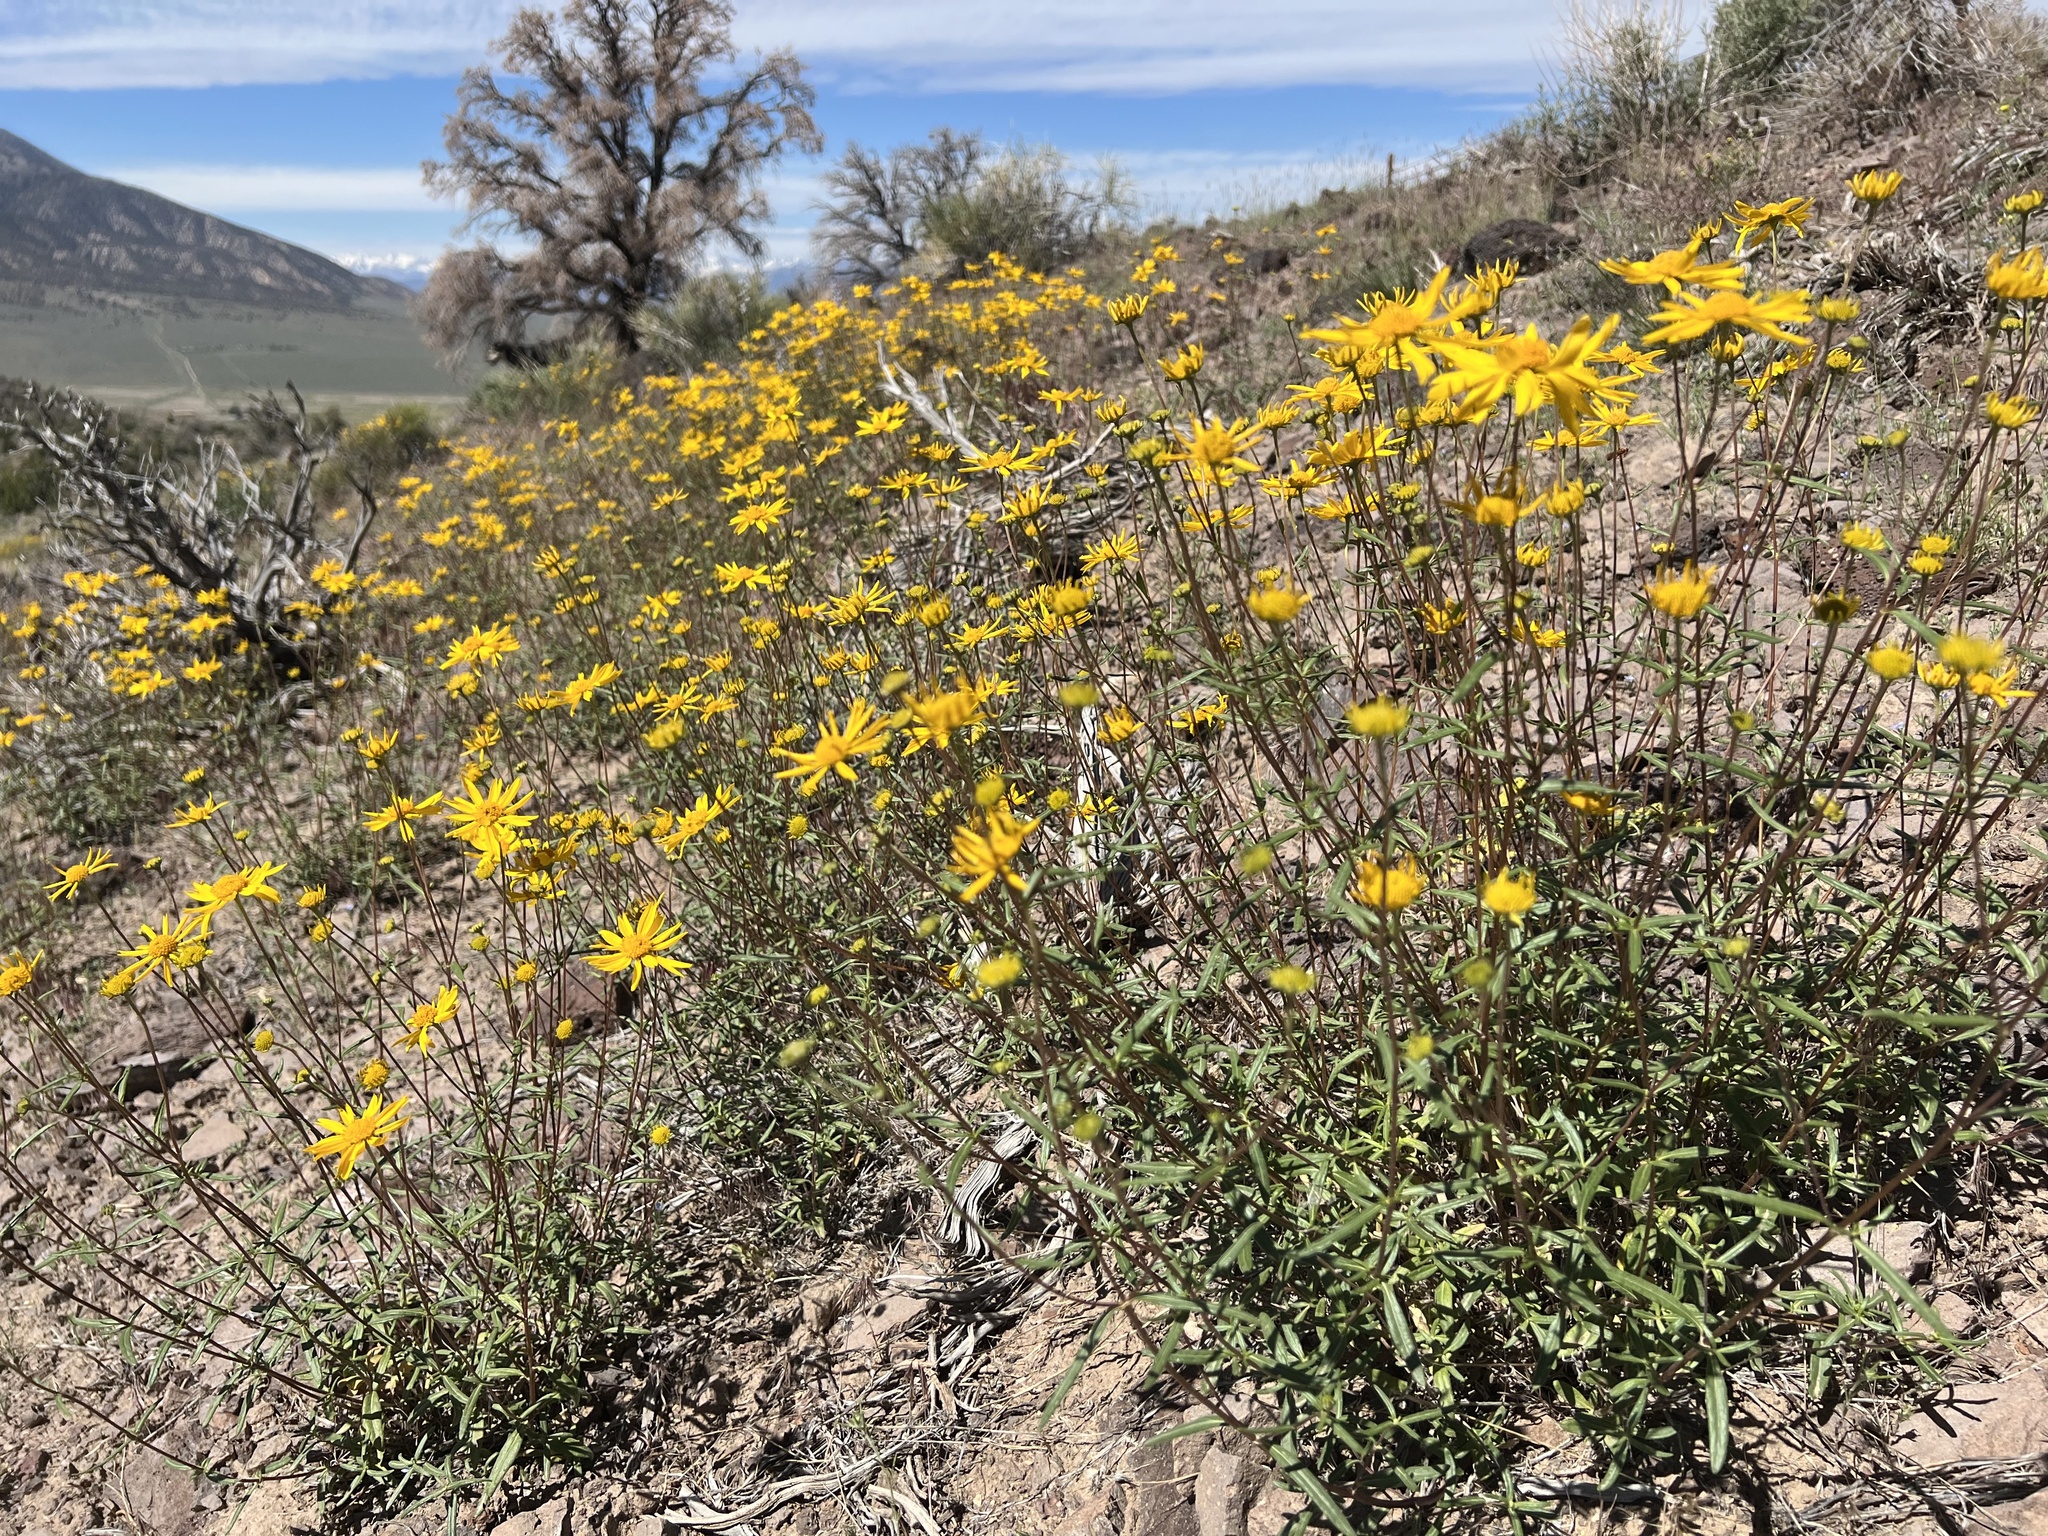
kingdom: Plantae
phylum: Tracheophyta
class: Magnoliopsida
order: Asterales
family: Asteraceae
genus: Heliomeris
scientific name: Heliomeris multiflora
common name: Showy goldeneye
